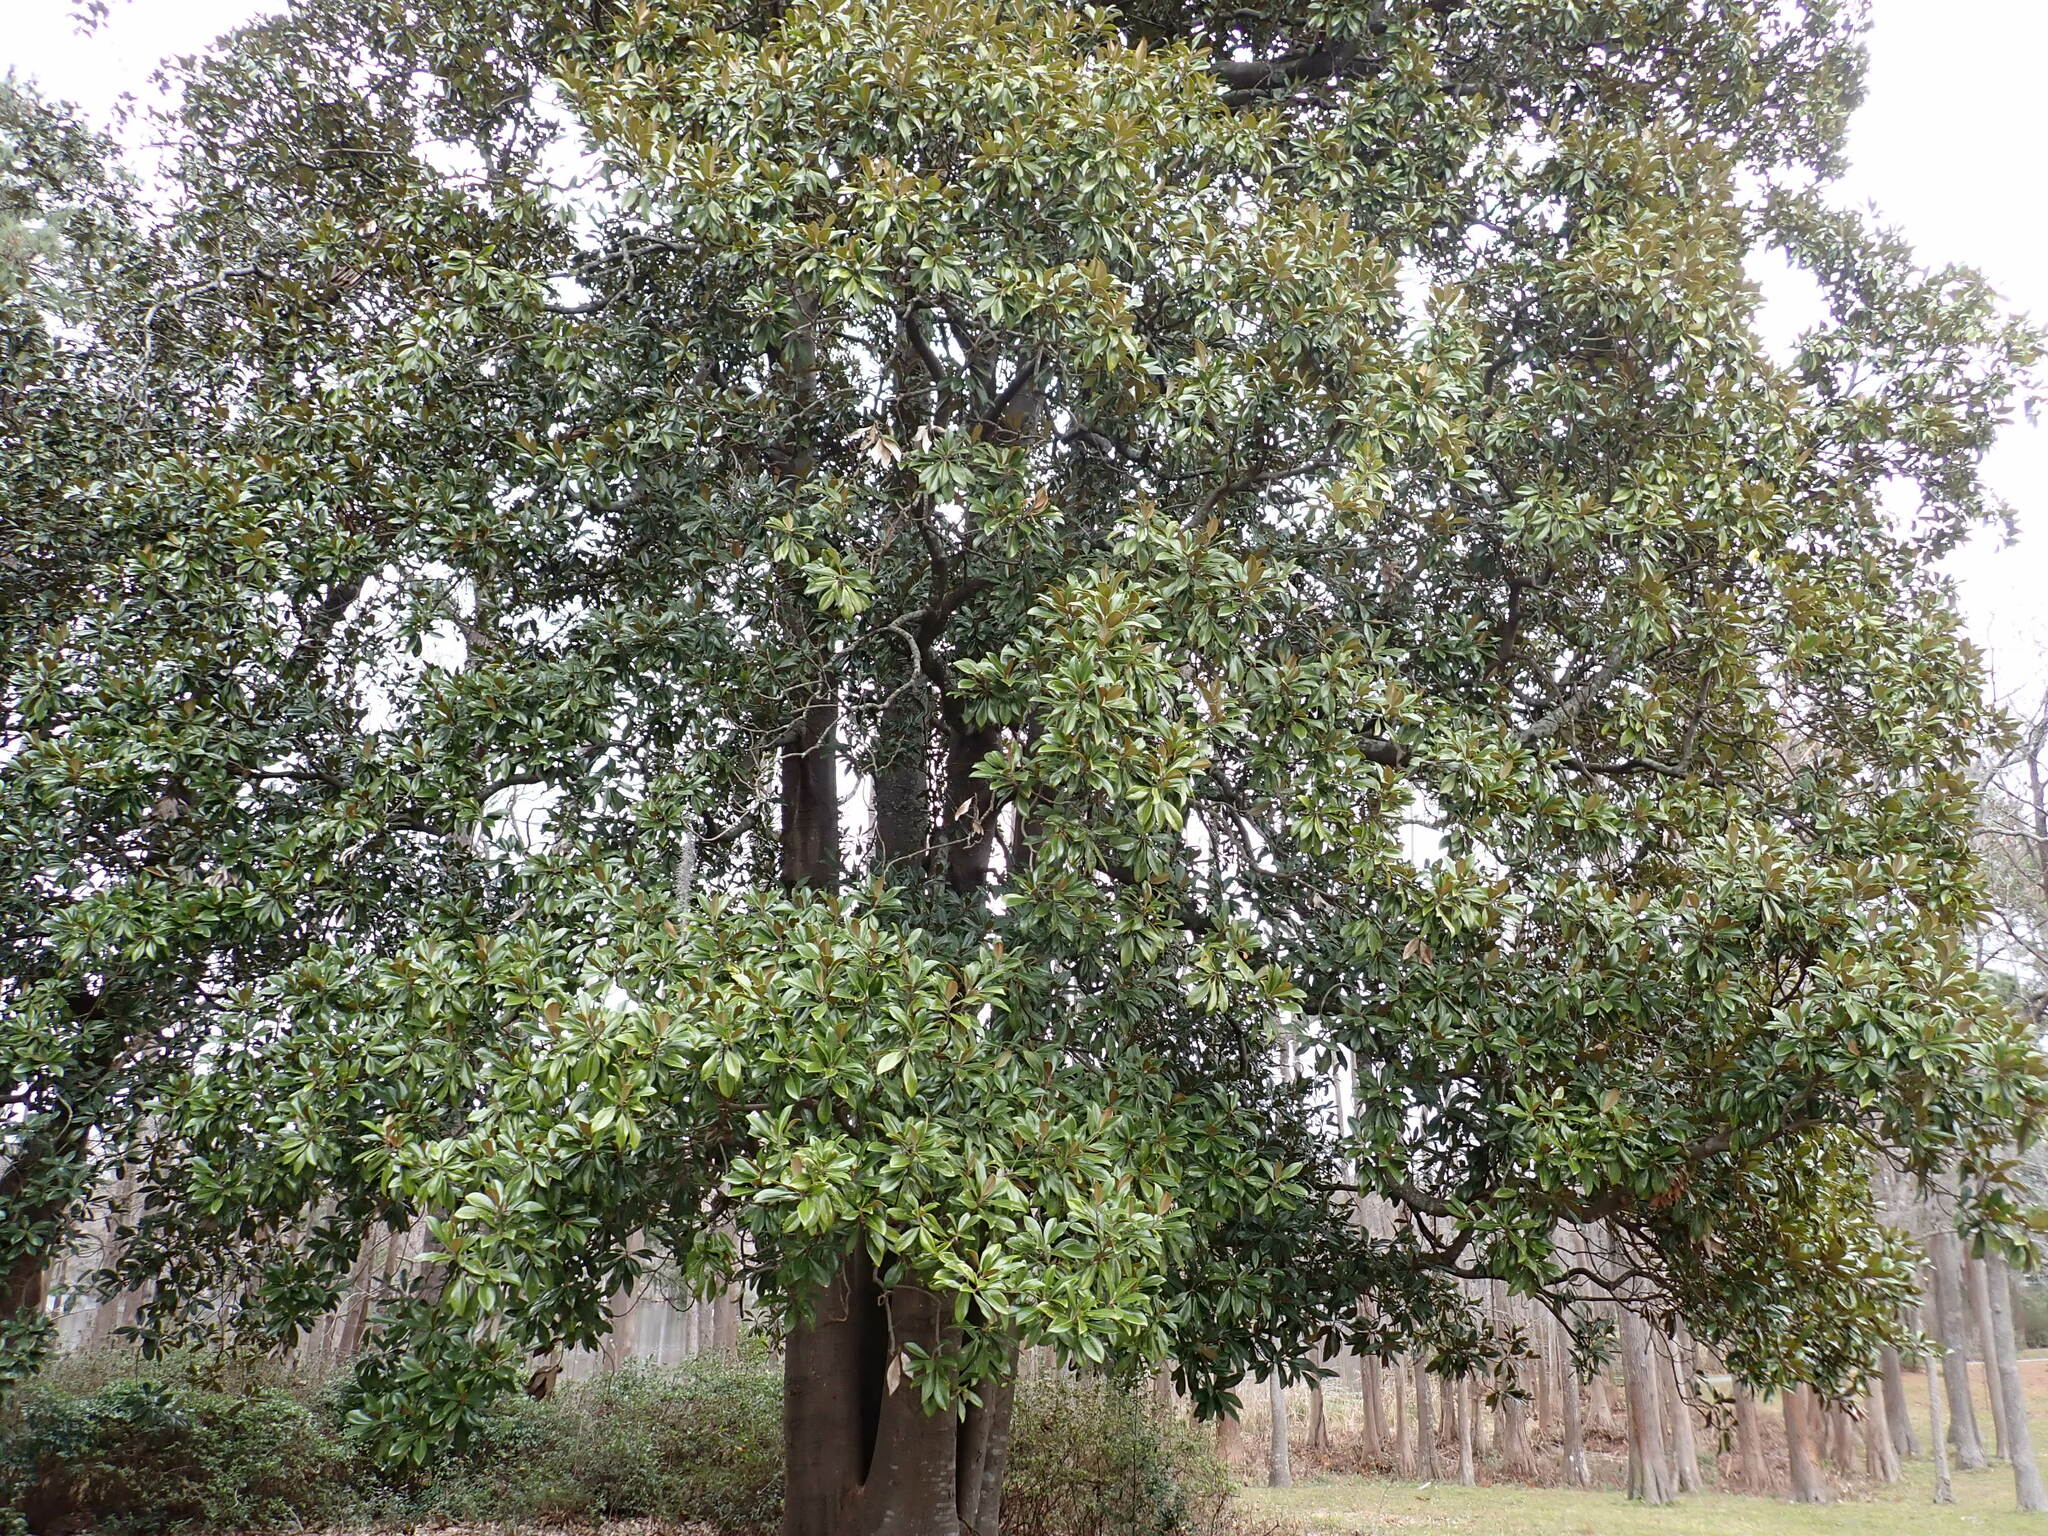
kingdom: Plantae
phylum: Tracheophyta
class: Magnoliopsida
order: Magnoliales
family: Magnoliaceae
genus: Magnolia
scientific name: Magnolia grandiflora
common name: Southern magnolia
